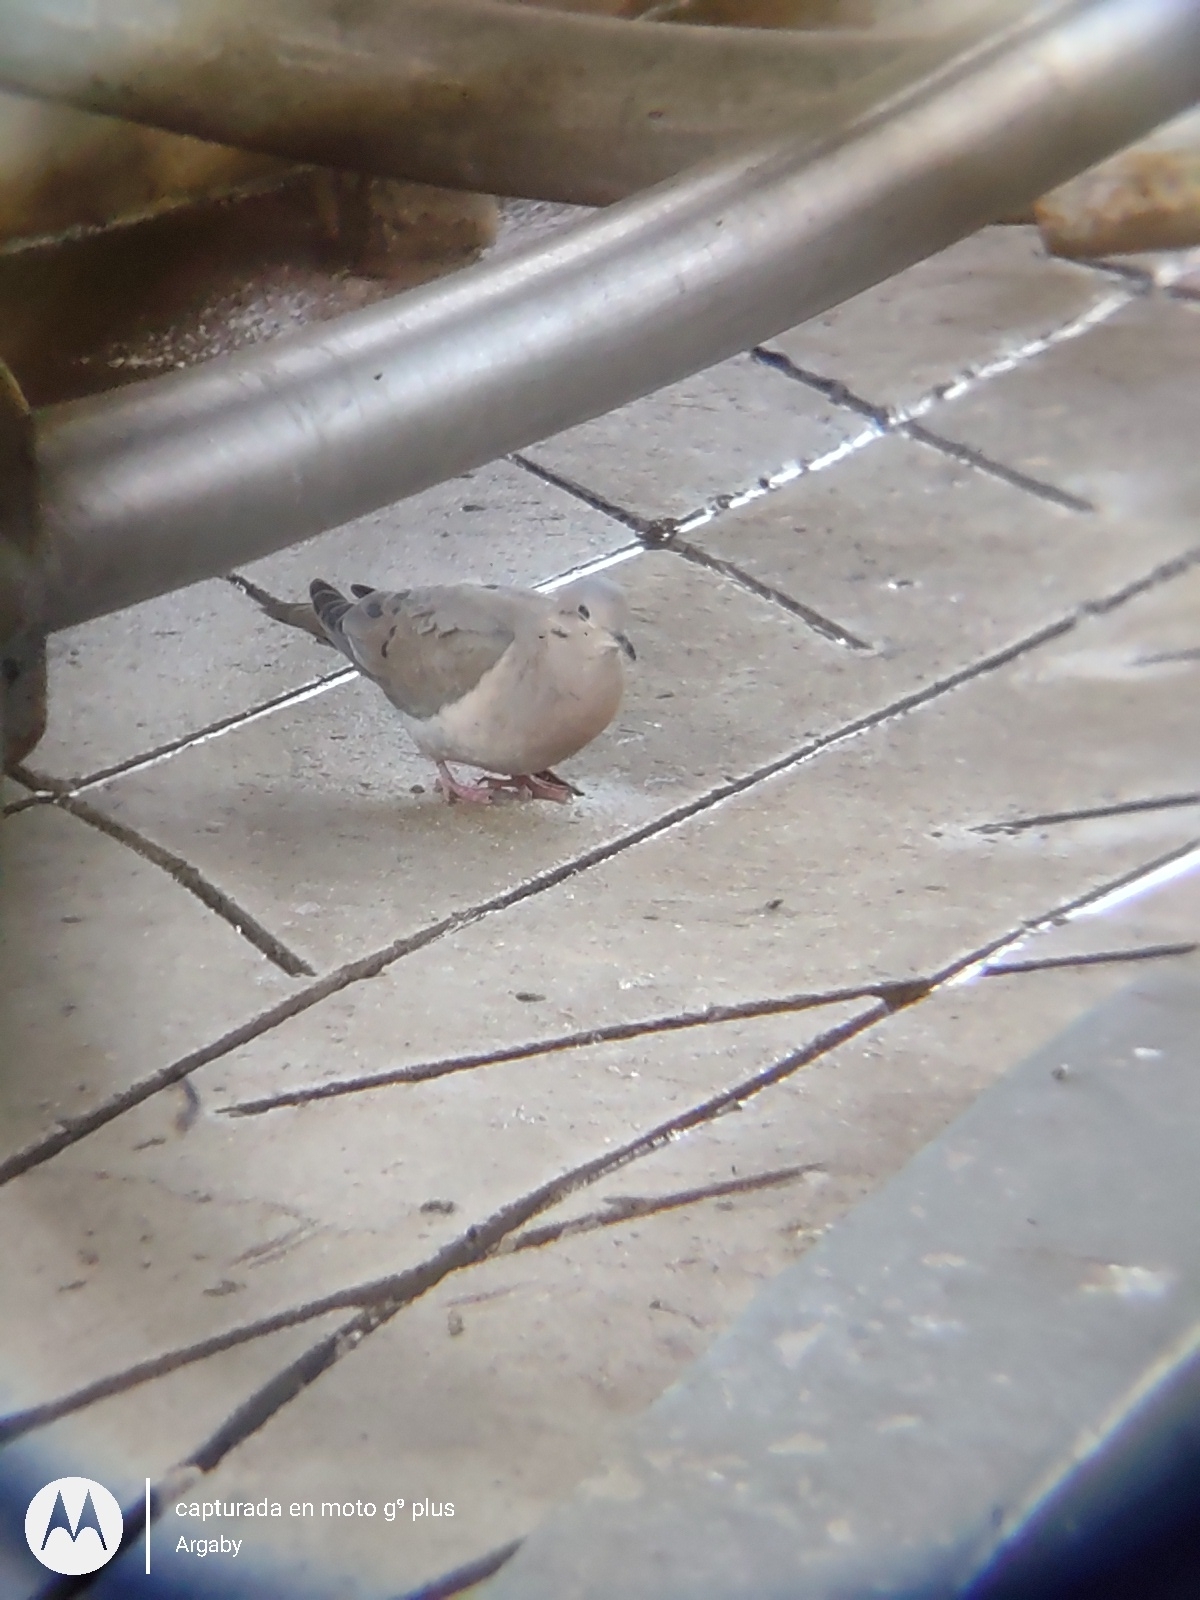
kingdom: Animalia
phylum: Chordata
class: Aves
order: Columbiformes
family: Columbidae
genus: Zenaida
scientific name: Zenaida auriculata
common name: Eared dove
